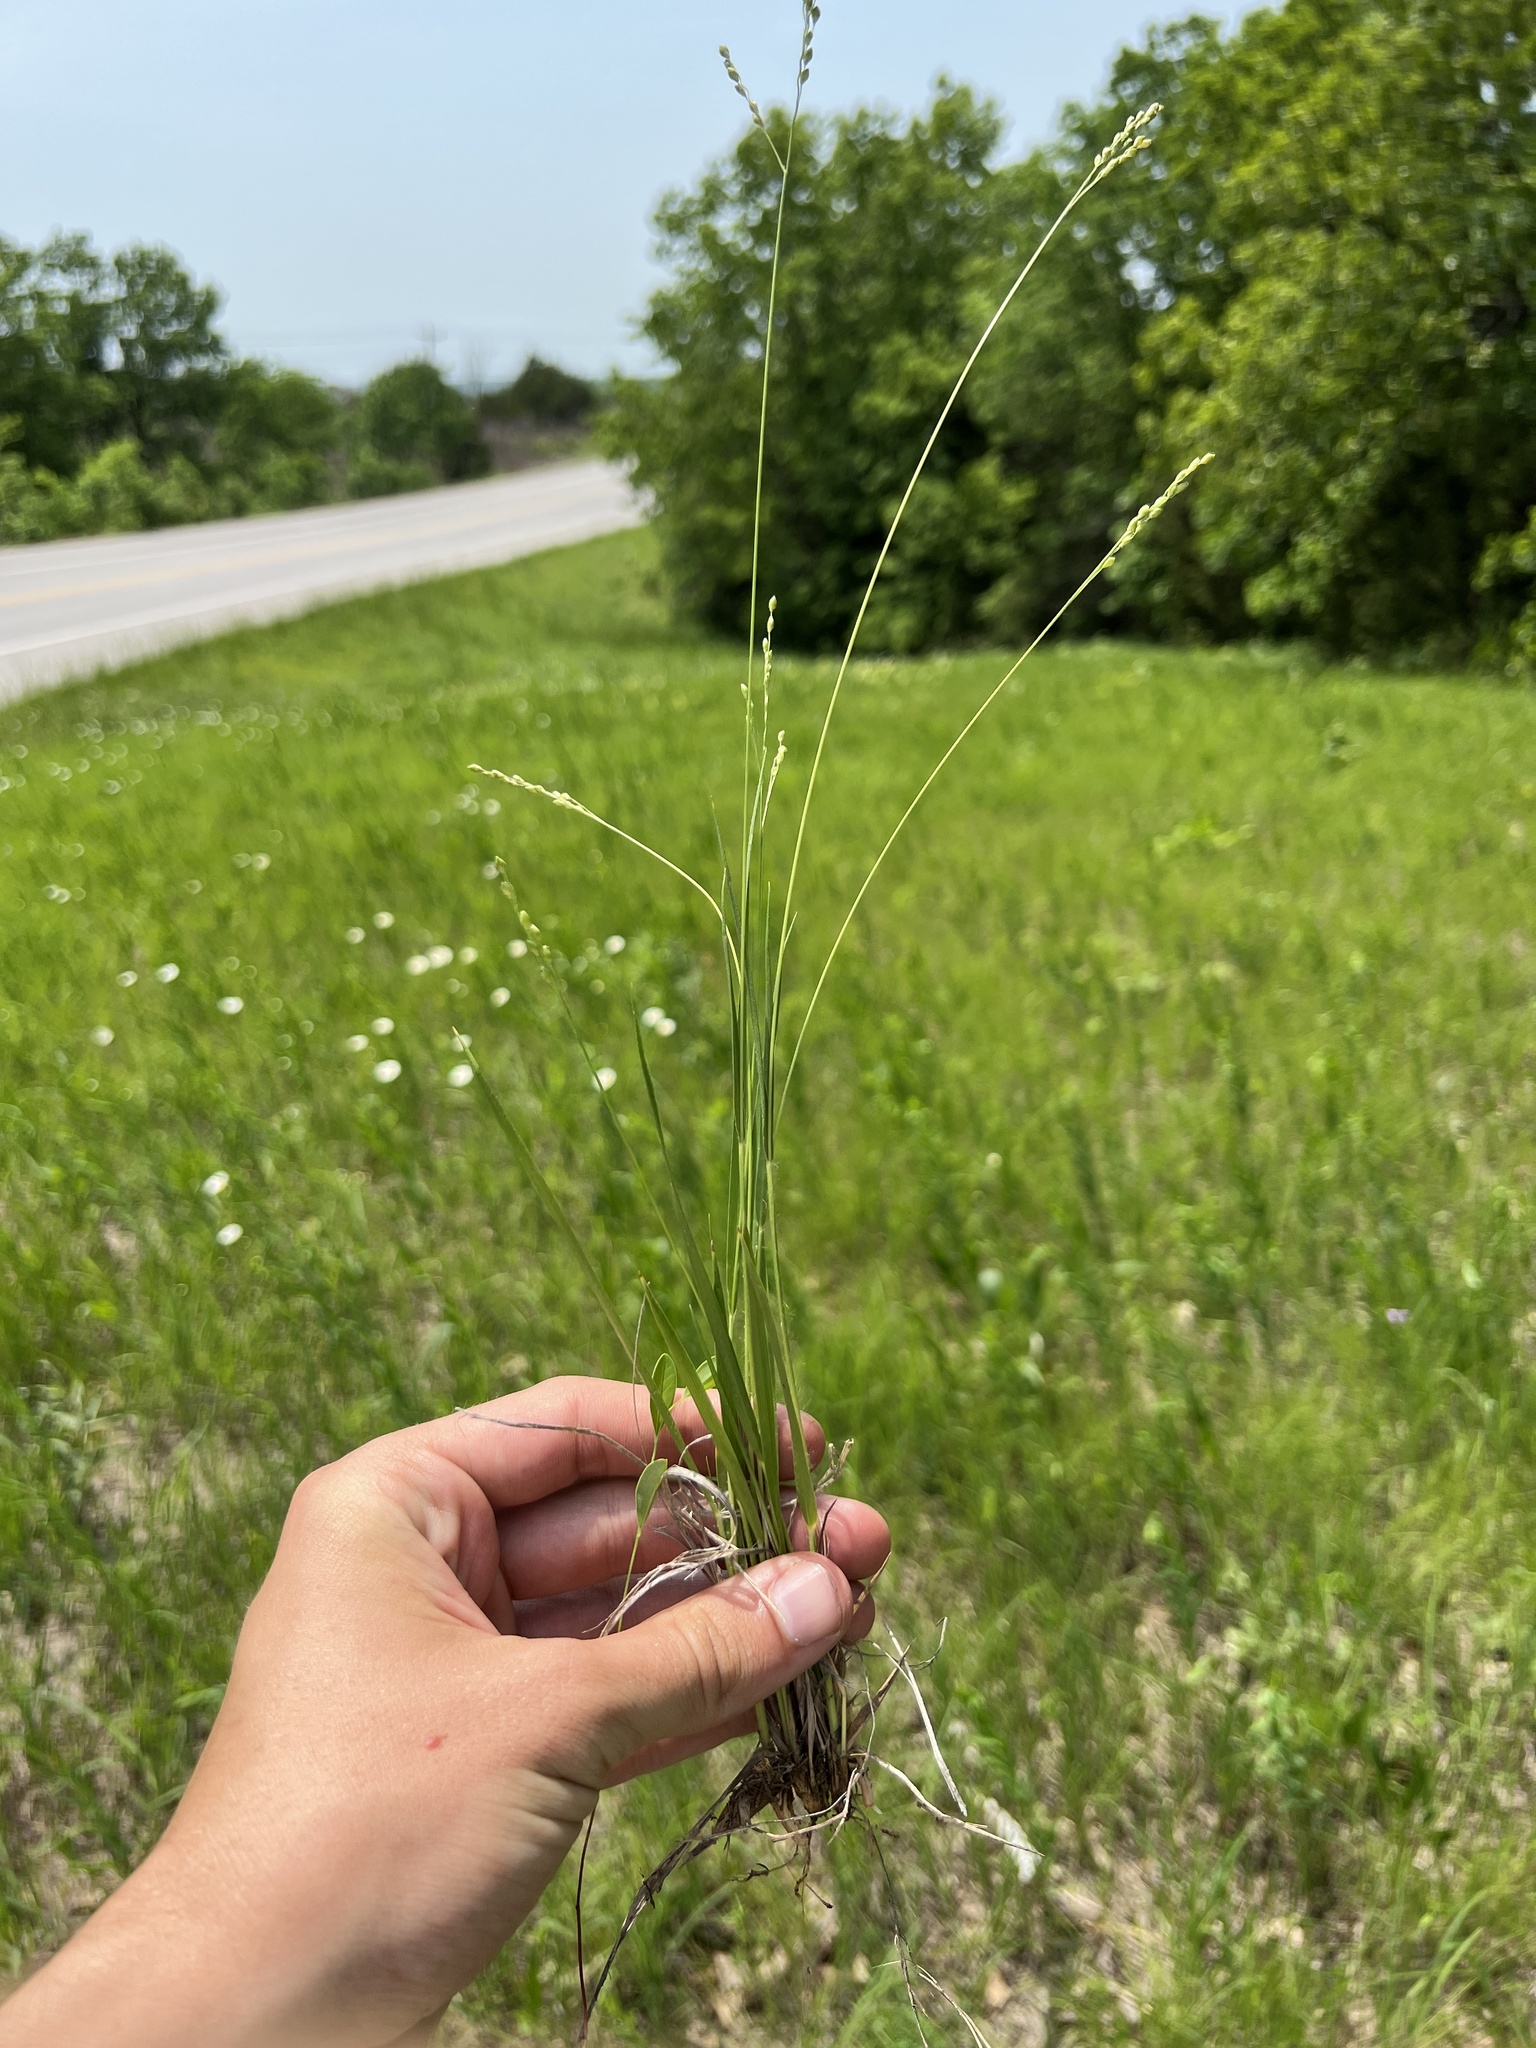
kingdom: Plantae
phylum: Tracheophyta
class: Liliopsida
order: Poales
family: Poaceae
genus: Dichanthelium
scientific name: Dichanthelium depauperatum
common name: Depauperate panicgrass
